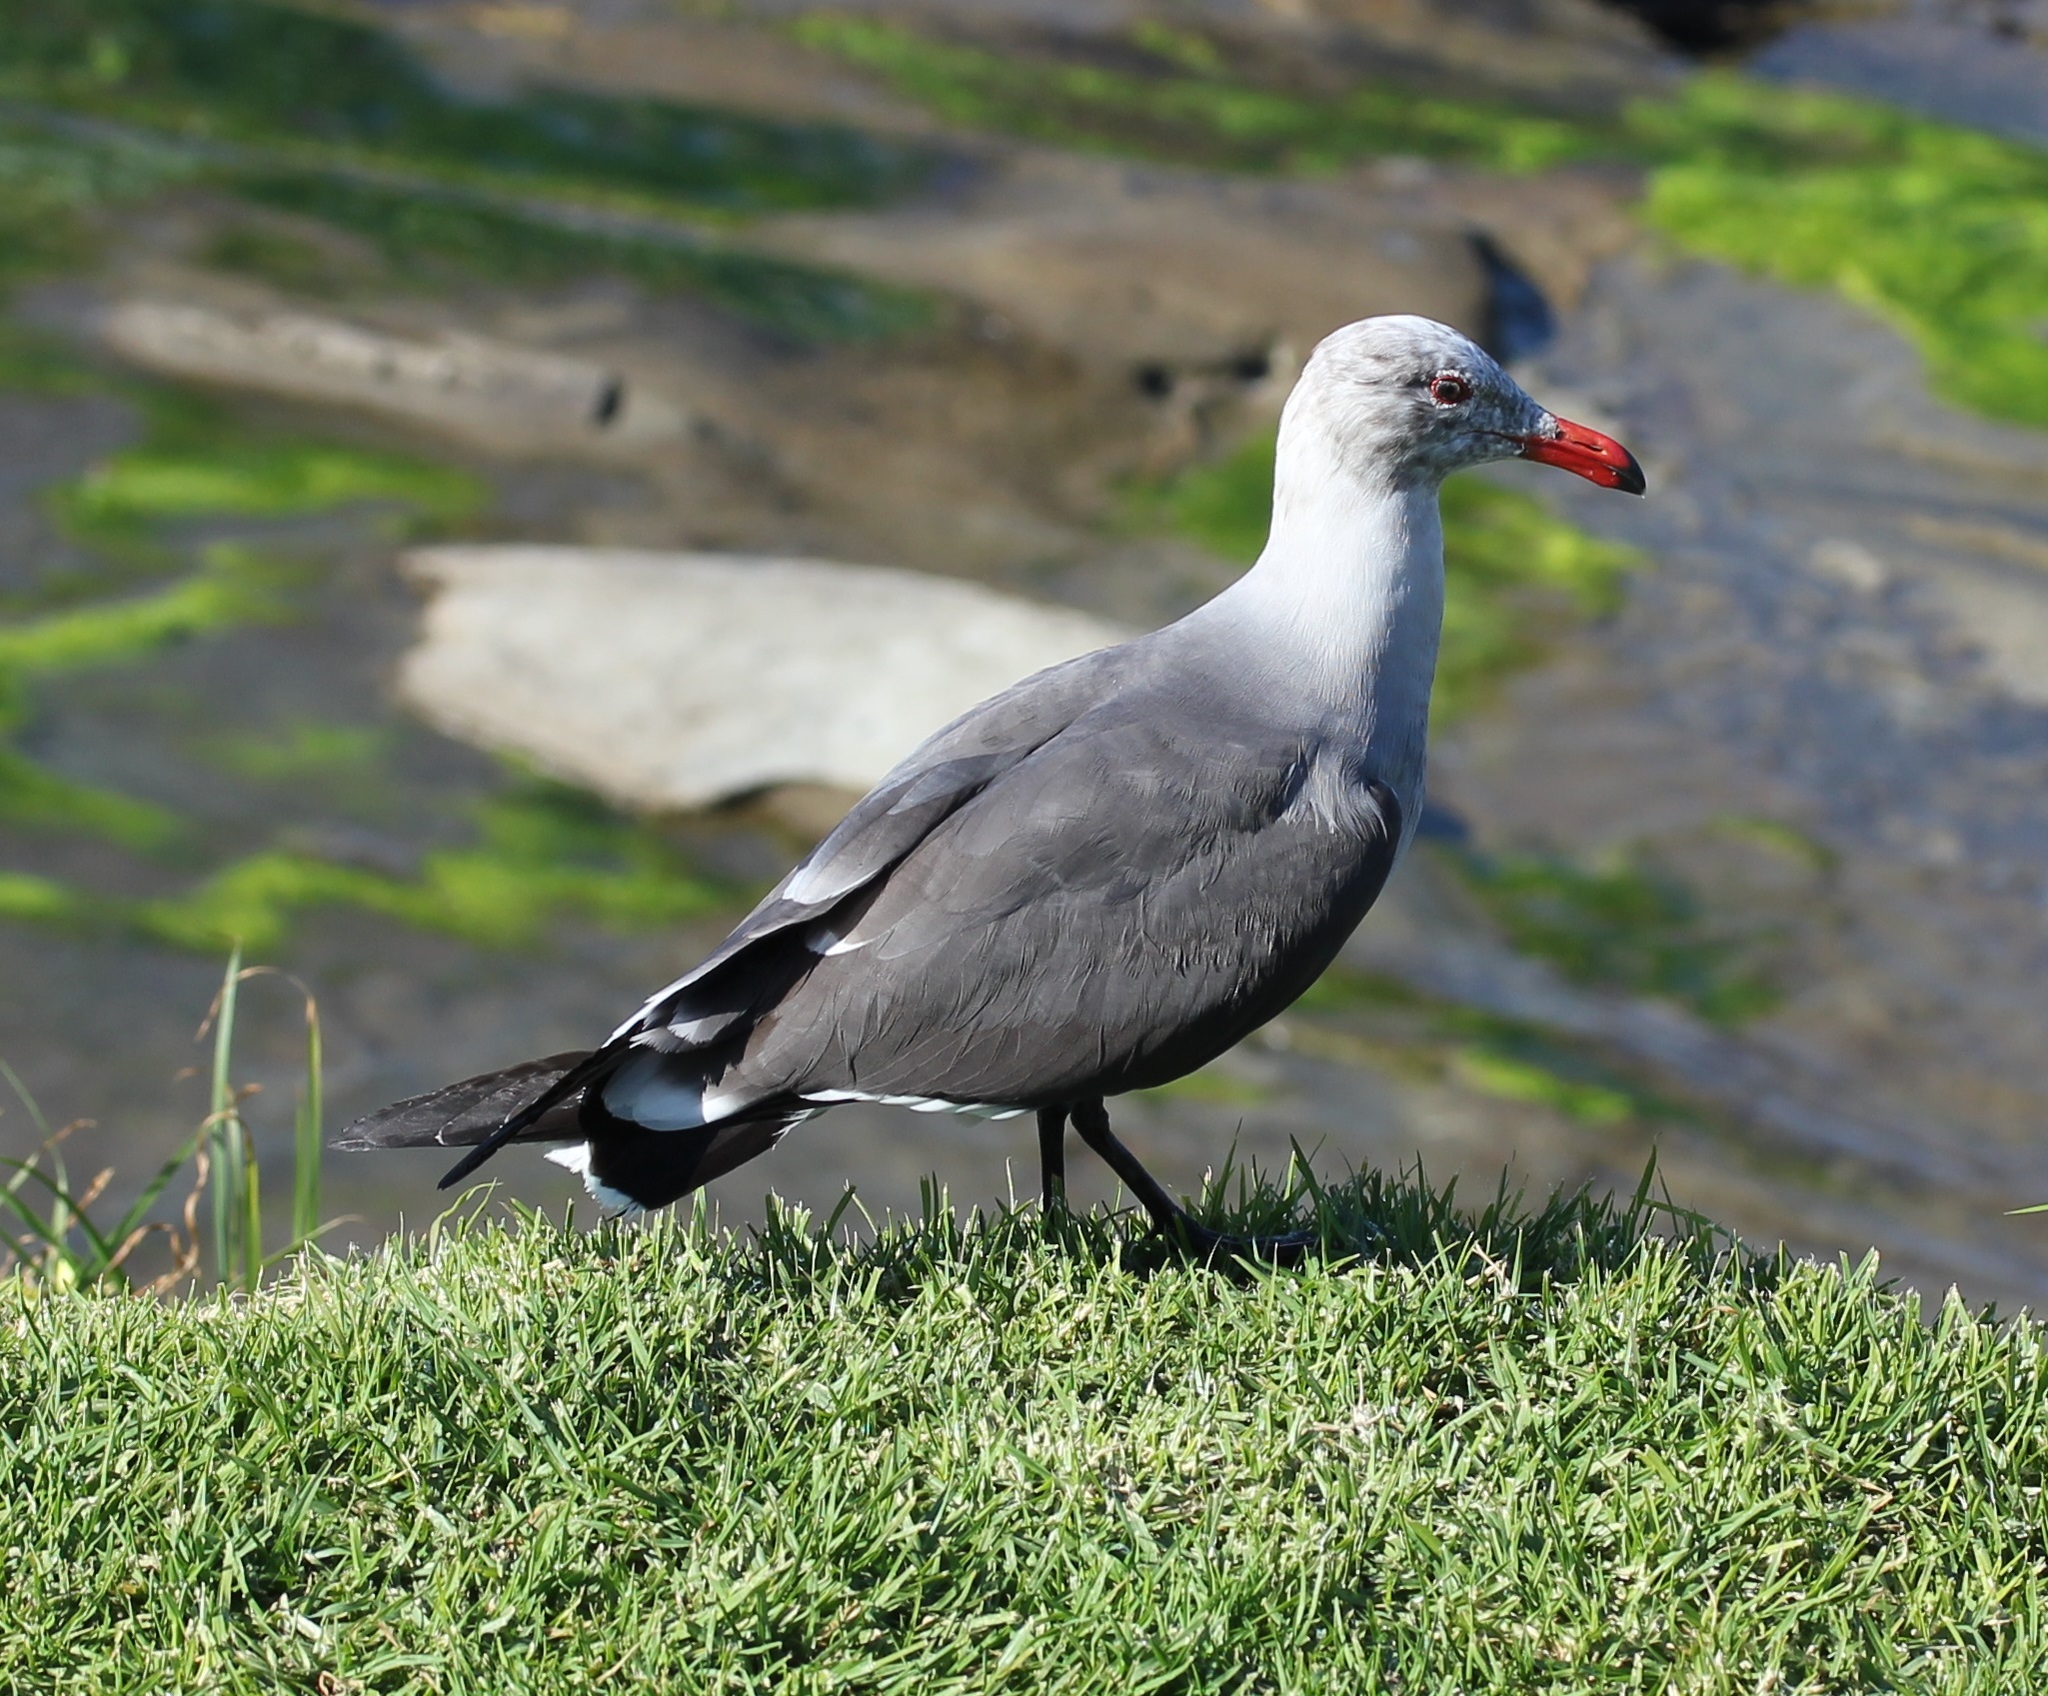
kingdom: Animalia
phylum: Chordata
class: Aves
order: Charadriiformes
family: Laridae
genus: Larus
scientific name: Larus heermanni
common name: Heermann's gull
